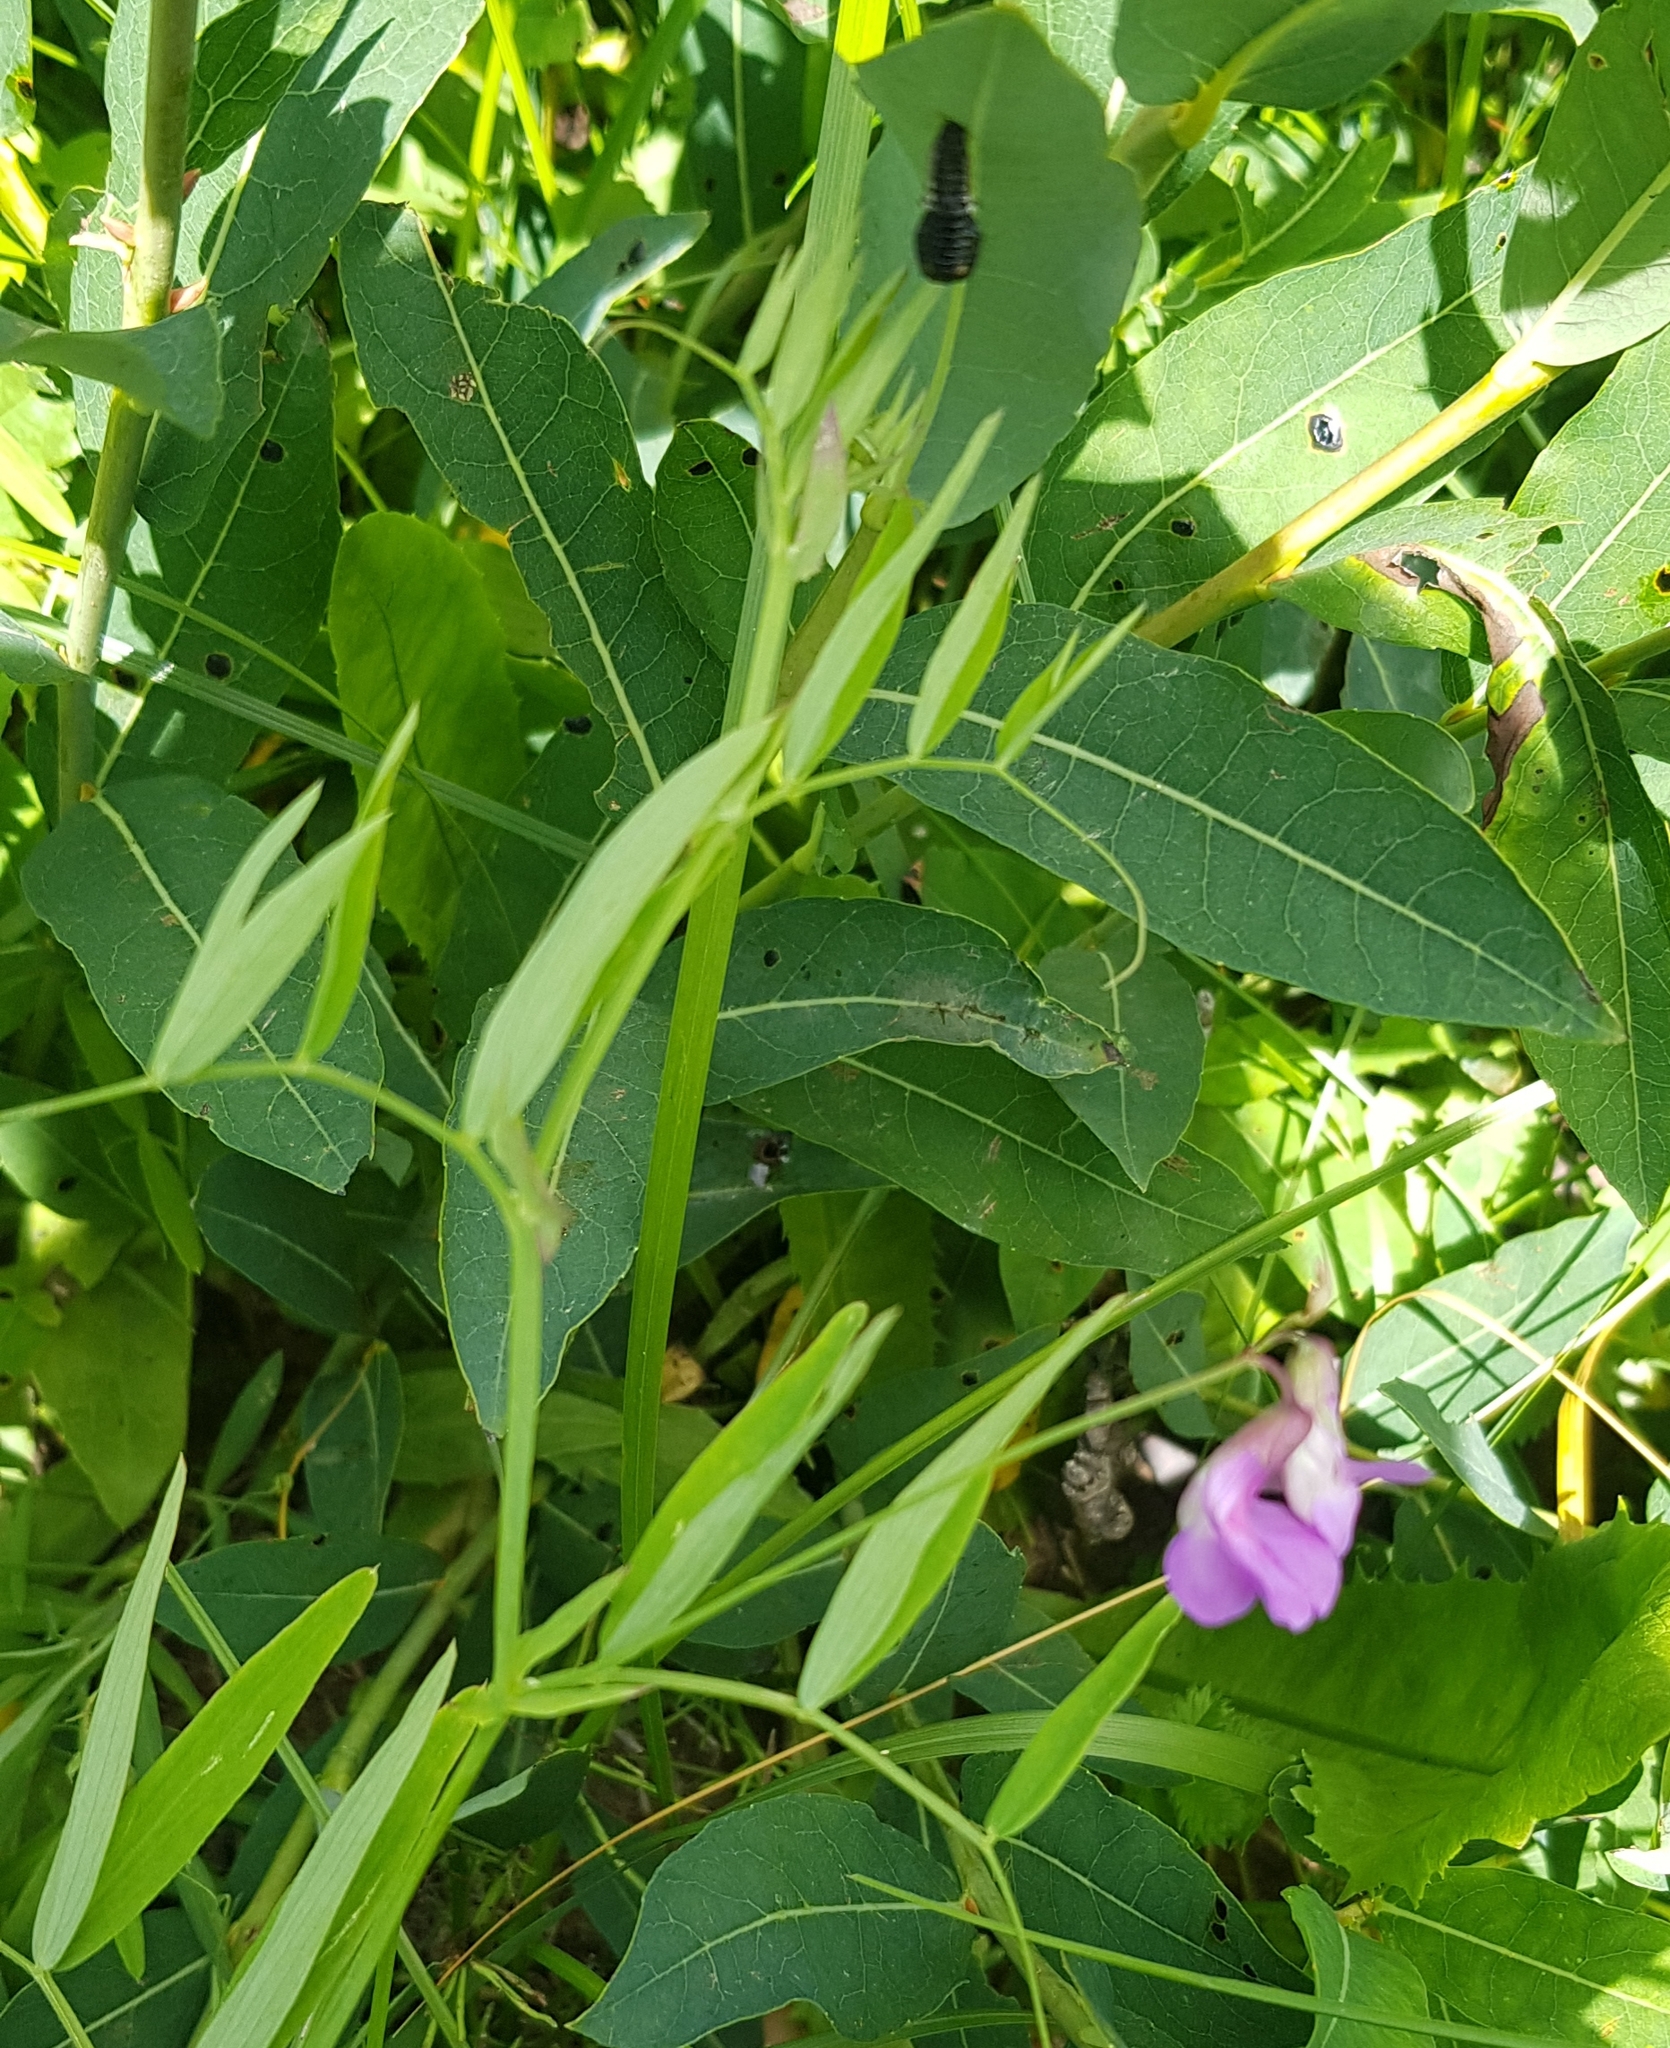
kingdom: Plantae
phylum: Tracheophyta
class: Magnoliopsida
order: Fabales
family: Fabaceae
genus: Lathyrus
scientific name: Lathyrus humilis
